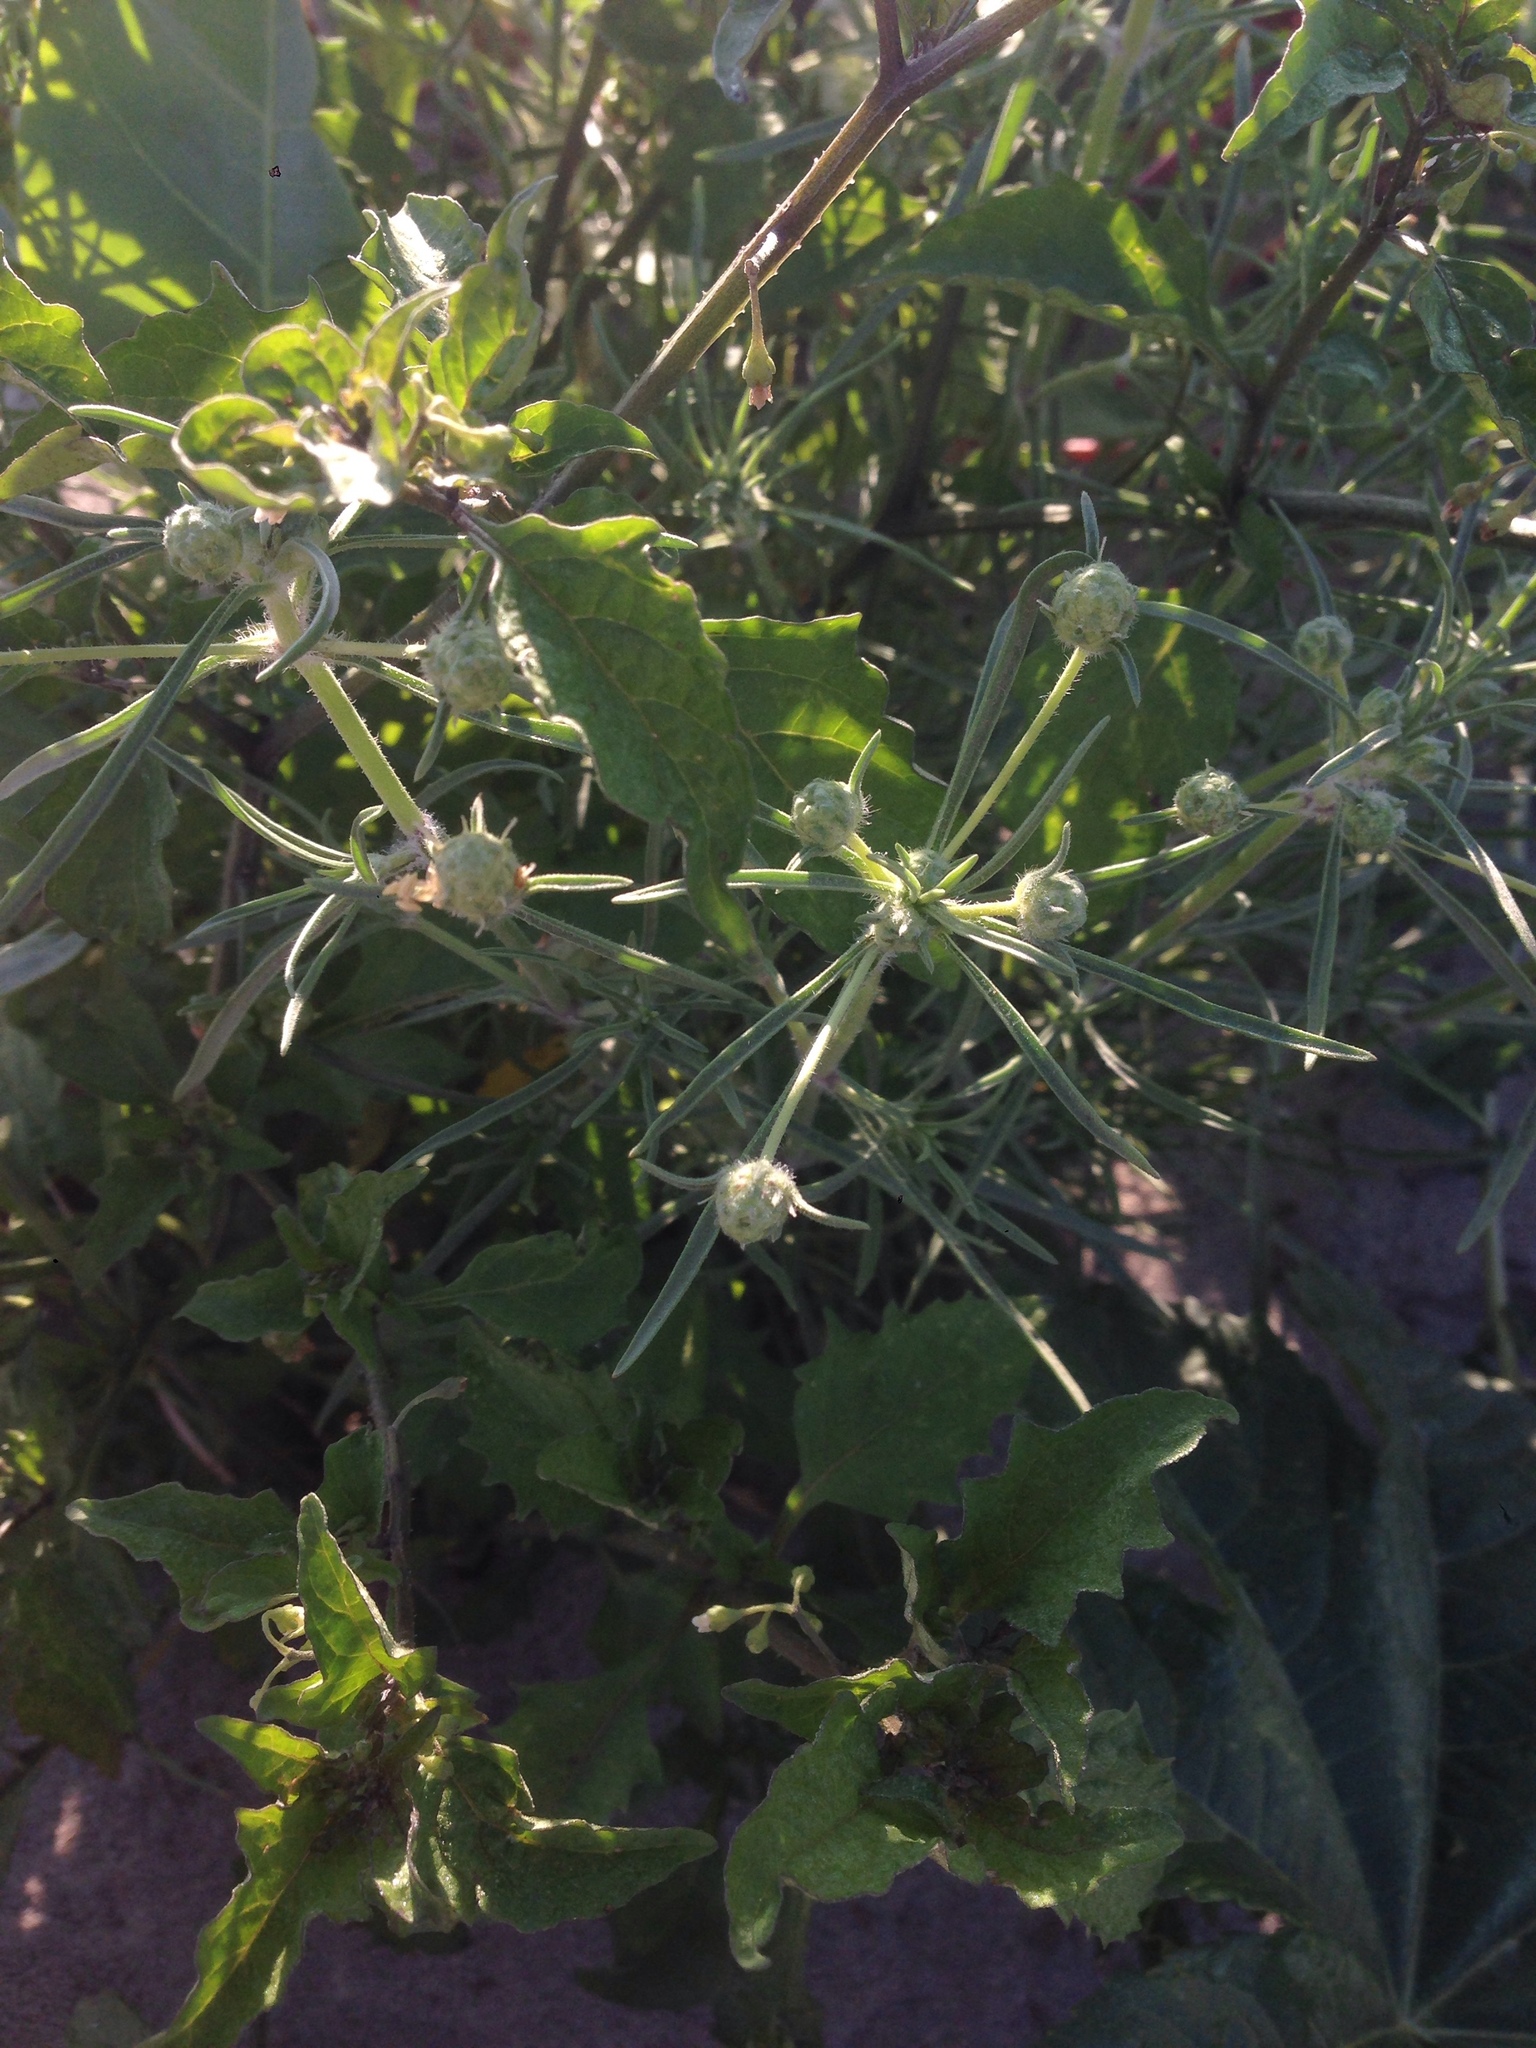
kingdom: Plantae
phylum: Tracheophyta
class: Magnoliopsida
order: Lamiales
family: Plantaginaceae
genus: Plantago
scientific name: Plantago arenaria
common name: Branched plantain
